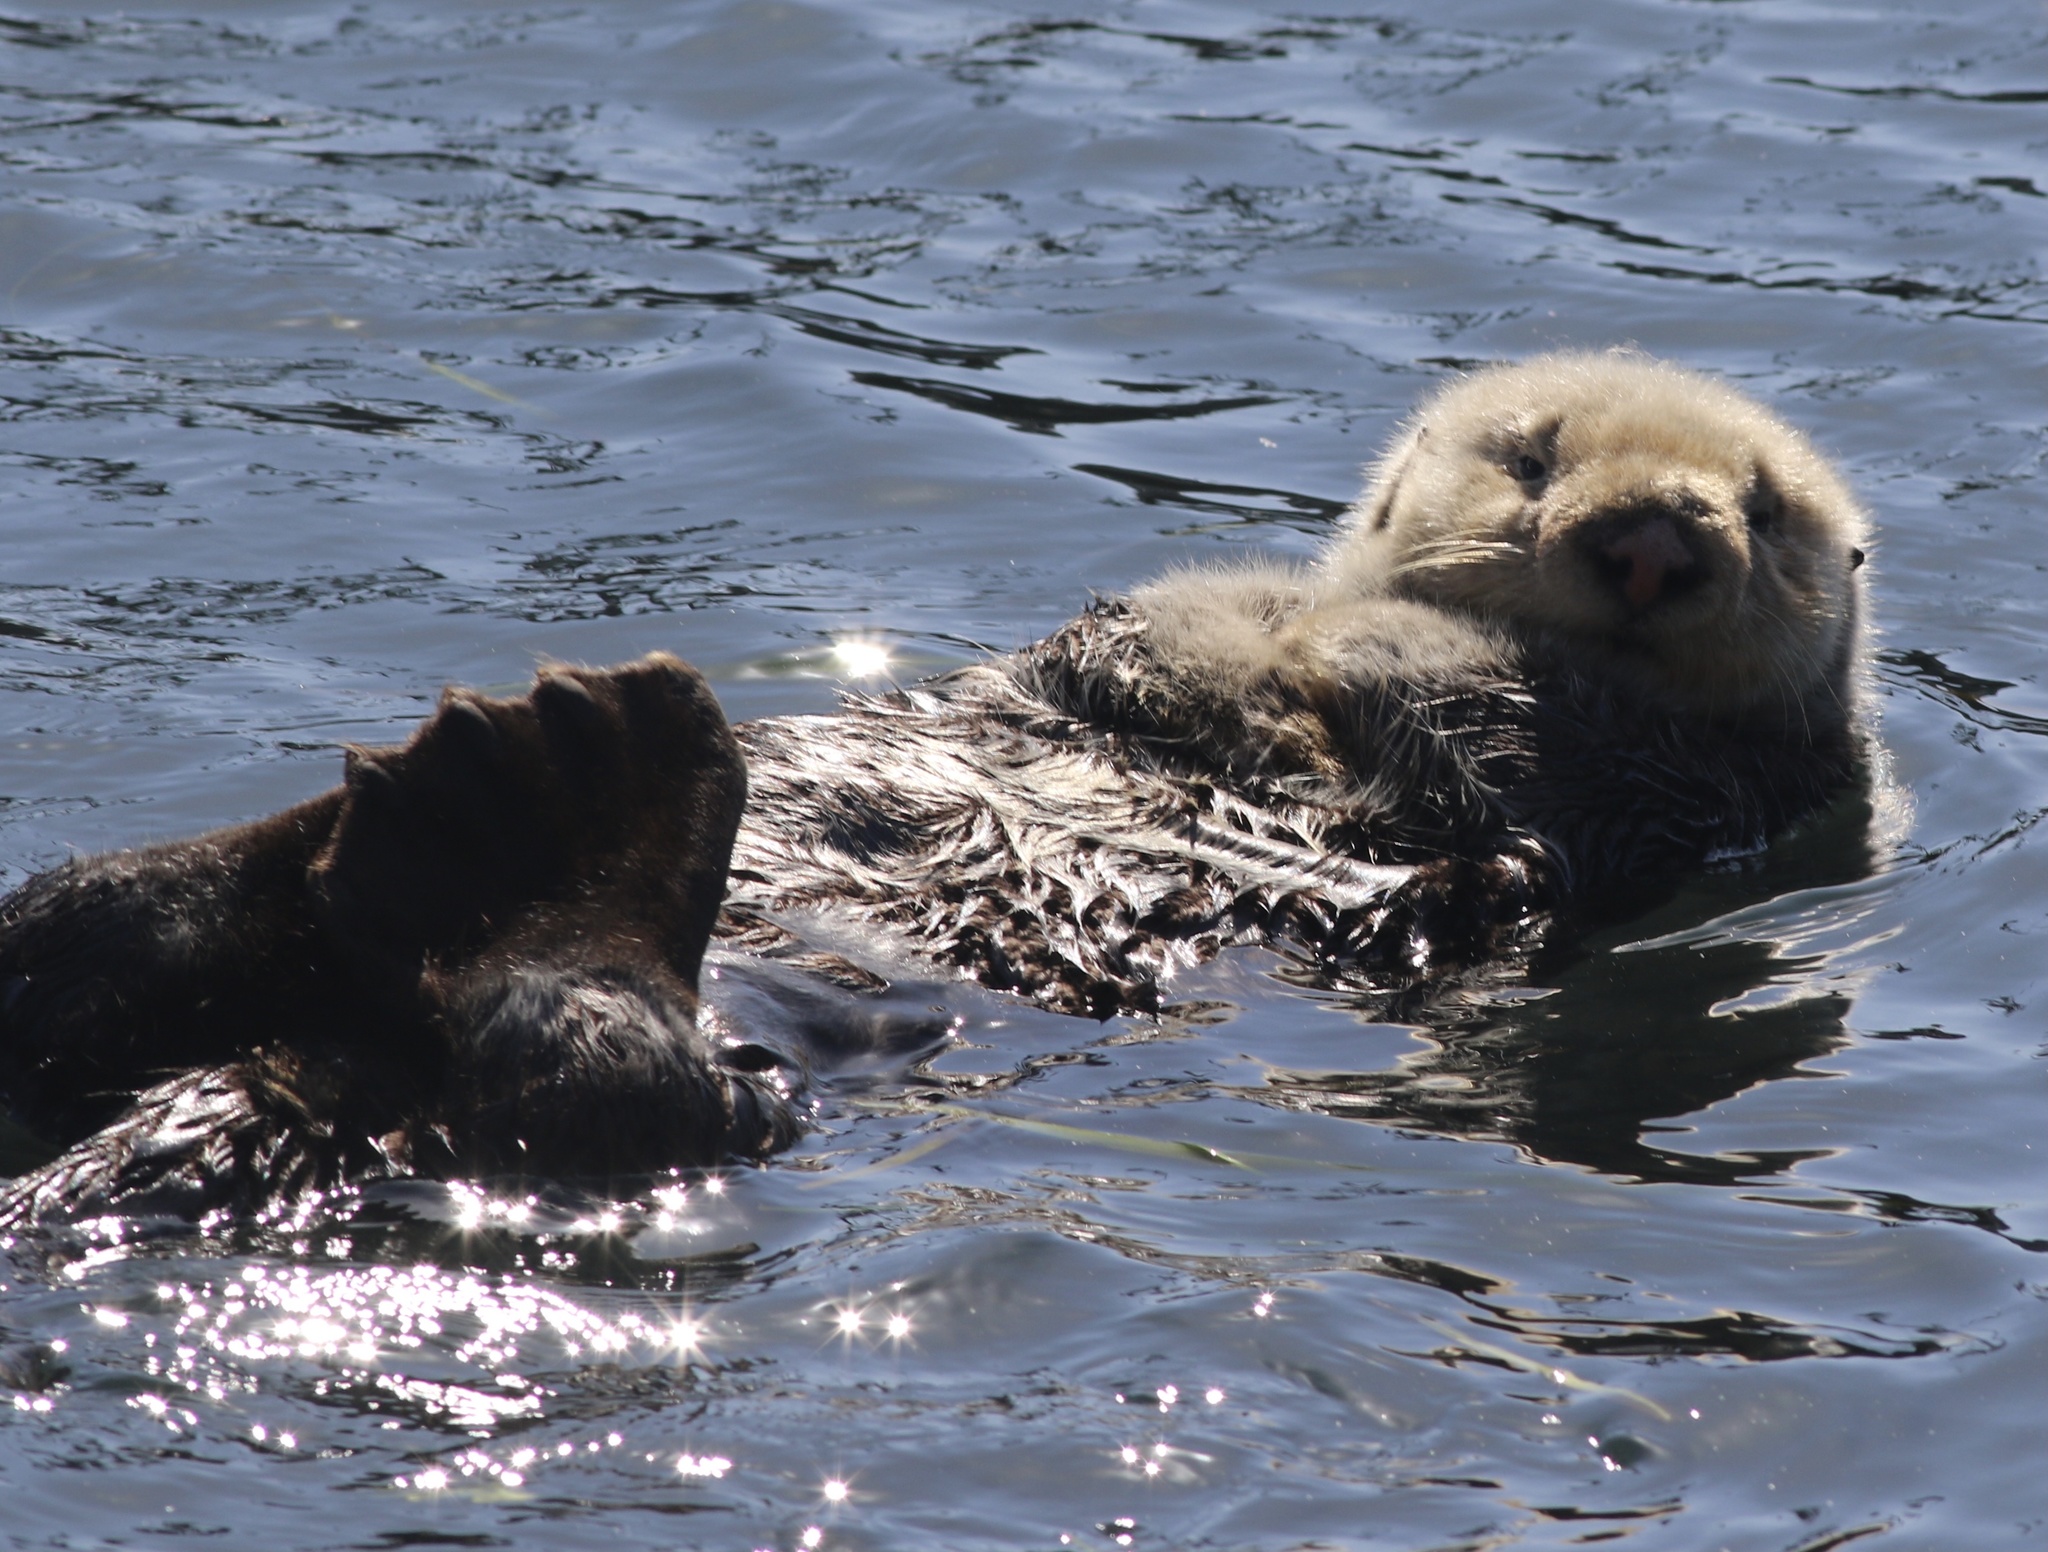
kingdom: Animalia
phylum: Chordata
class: Mammalia
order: Carnivora
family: Mustelidae
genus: Enhydra
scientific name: Enhydra lutris
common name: Sea otter
